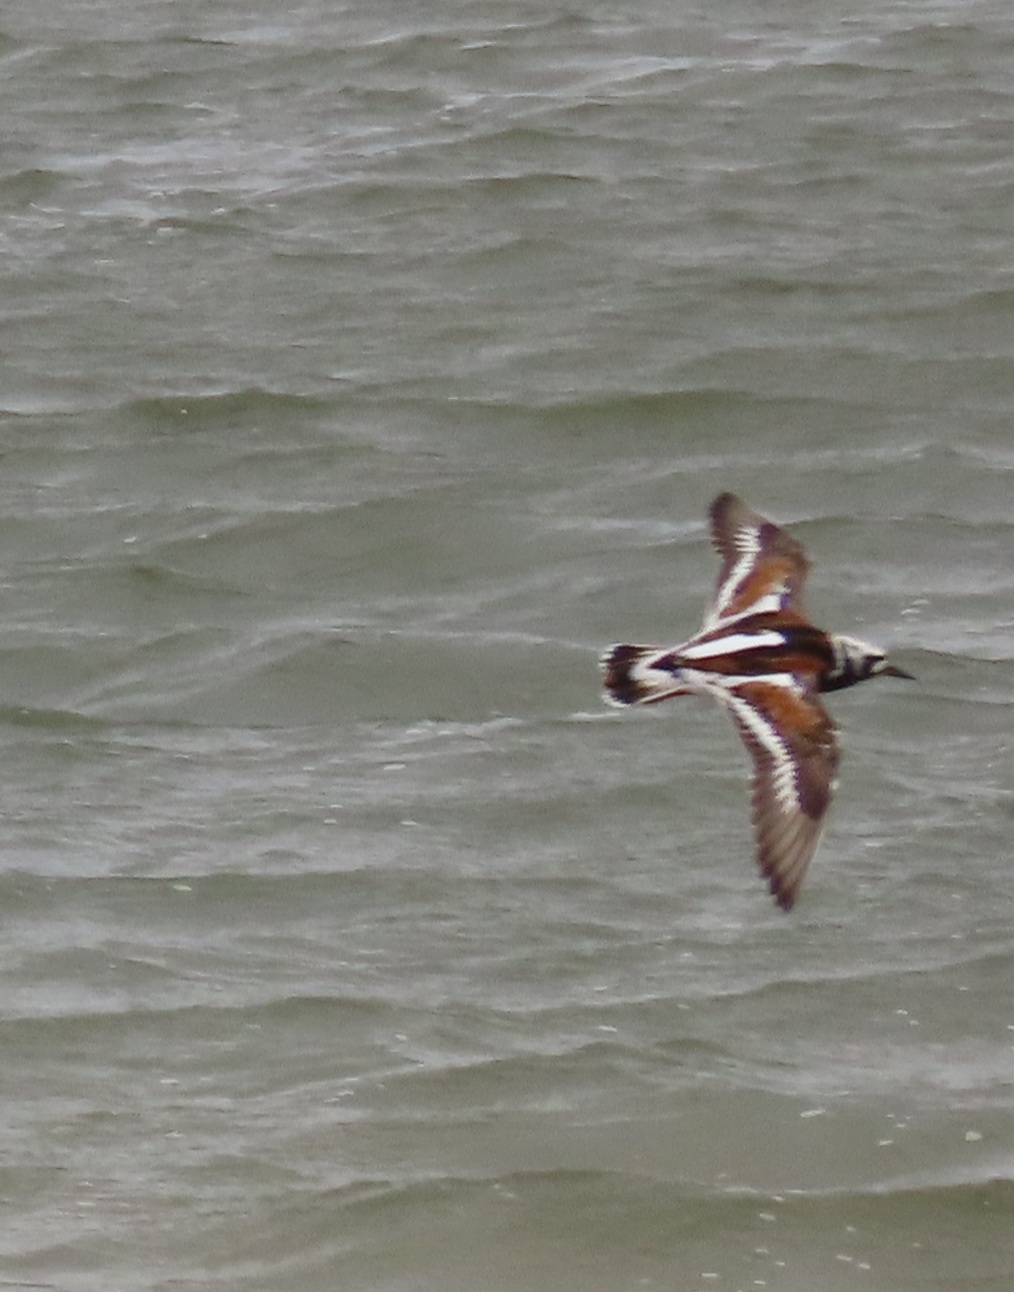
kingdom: Animalia
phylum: Chordata
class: Aves
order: Charadriiformes
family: Scolopacidae
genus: Arenaria
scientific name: Arenaria interpres
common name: Ruddy turnstone
